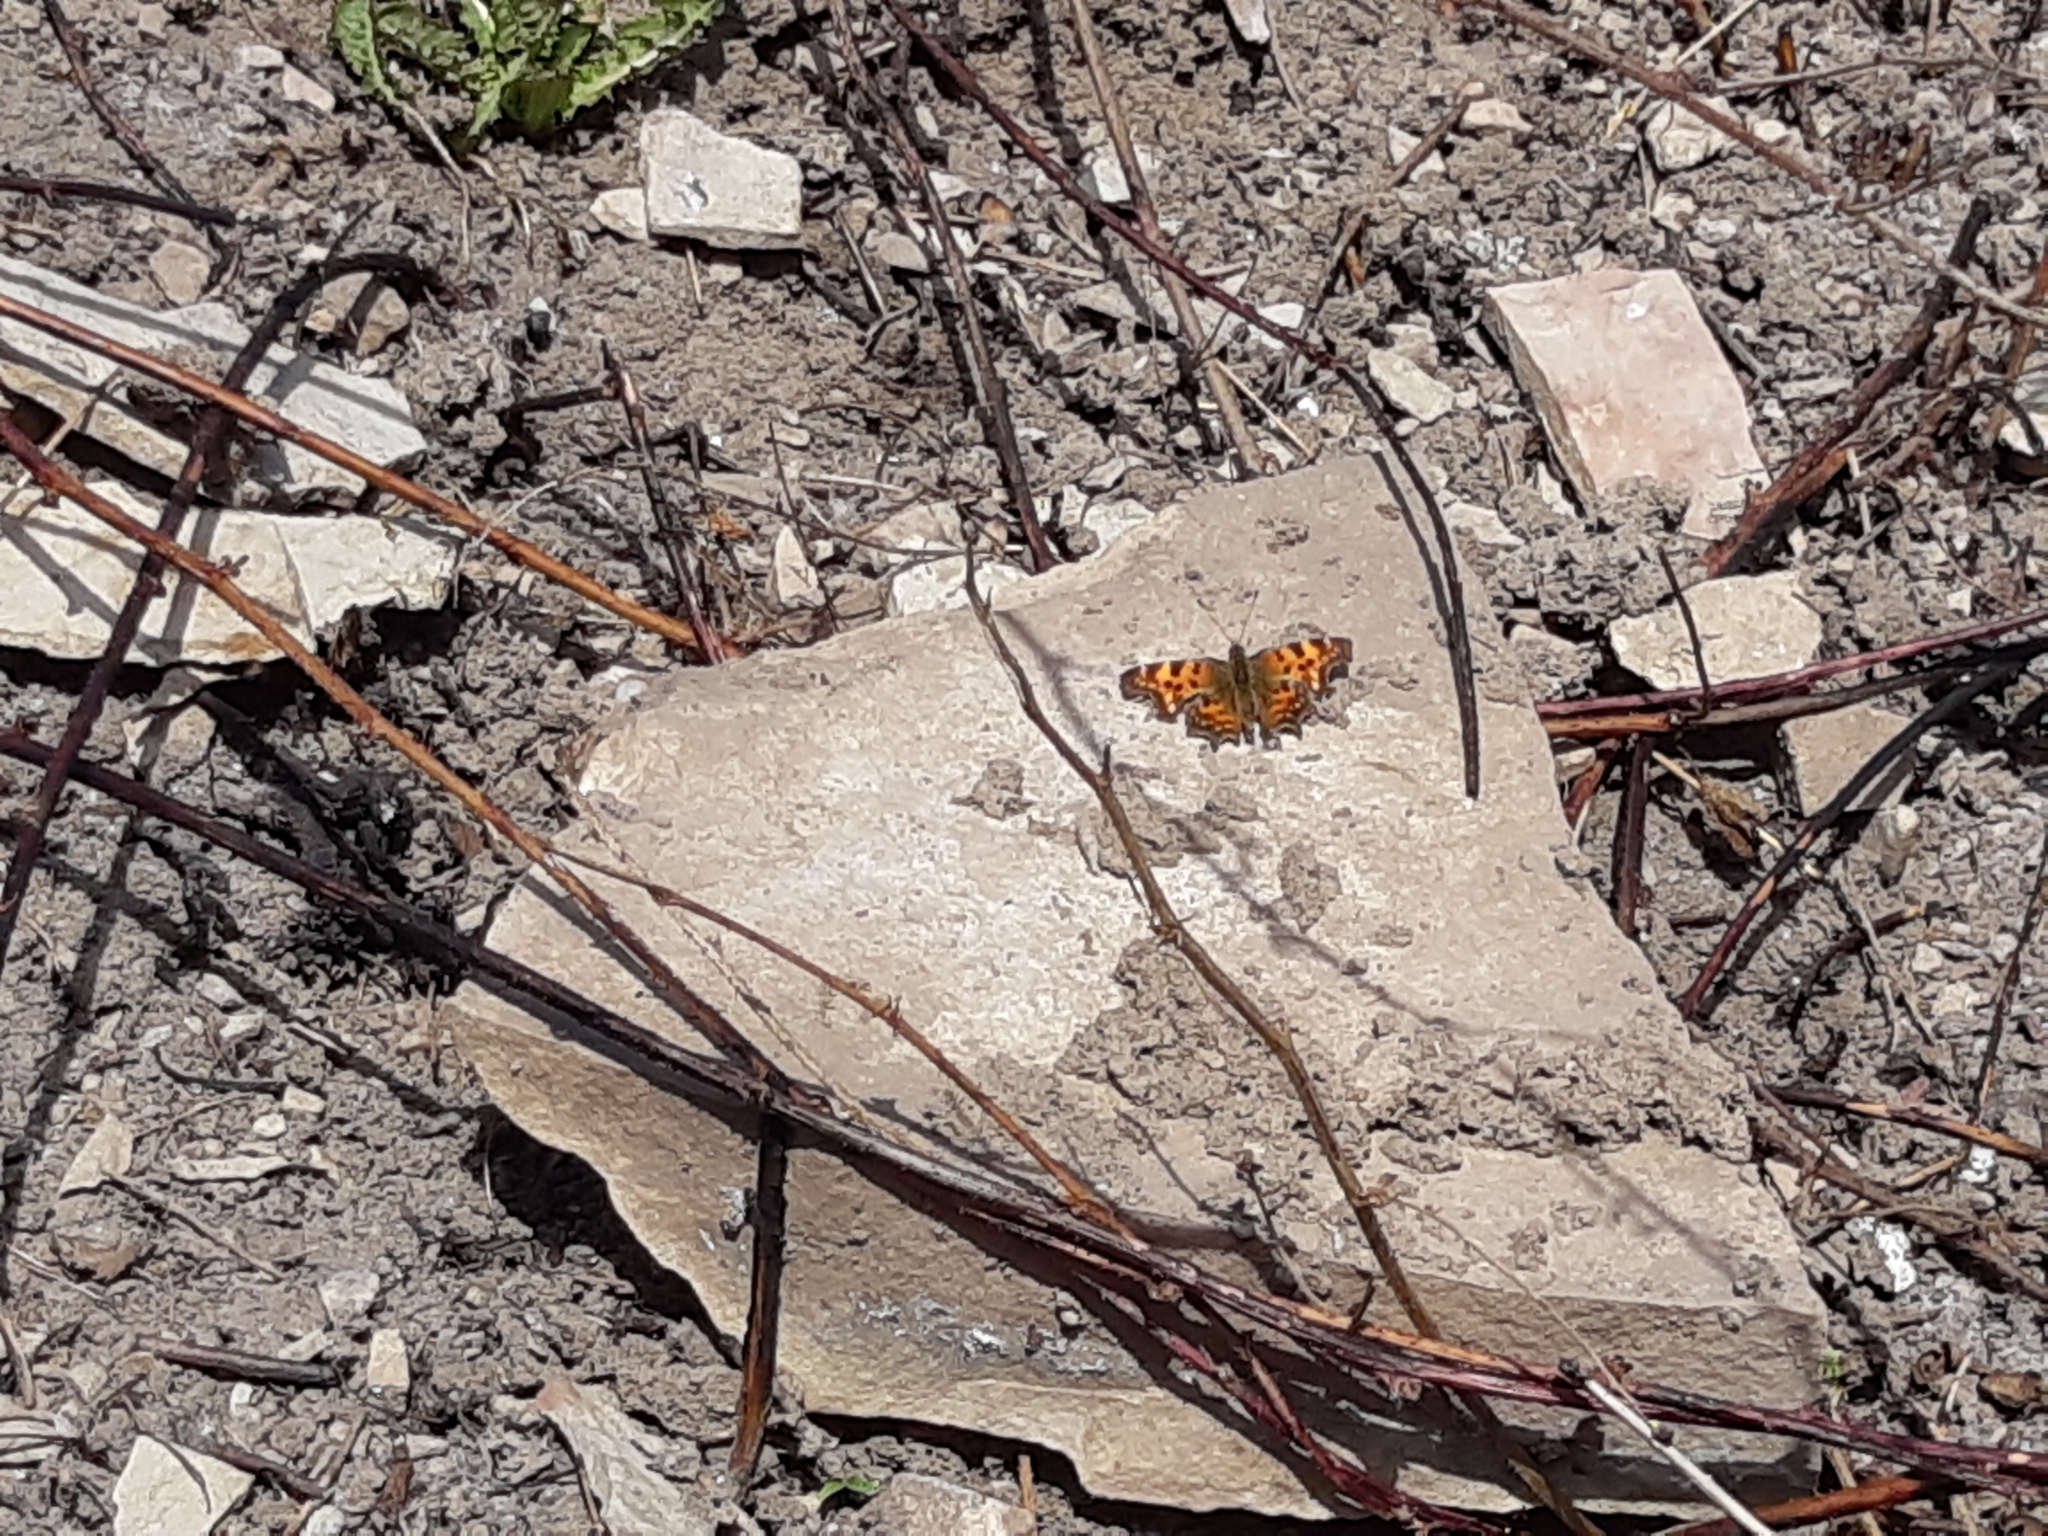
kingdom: Animalia
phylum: Arthropoda
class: Insecta
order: Lepidoptera
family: Nymphalidae
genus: Polygonia
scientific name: Polygonia c-album
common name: Comma
